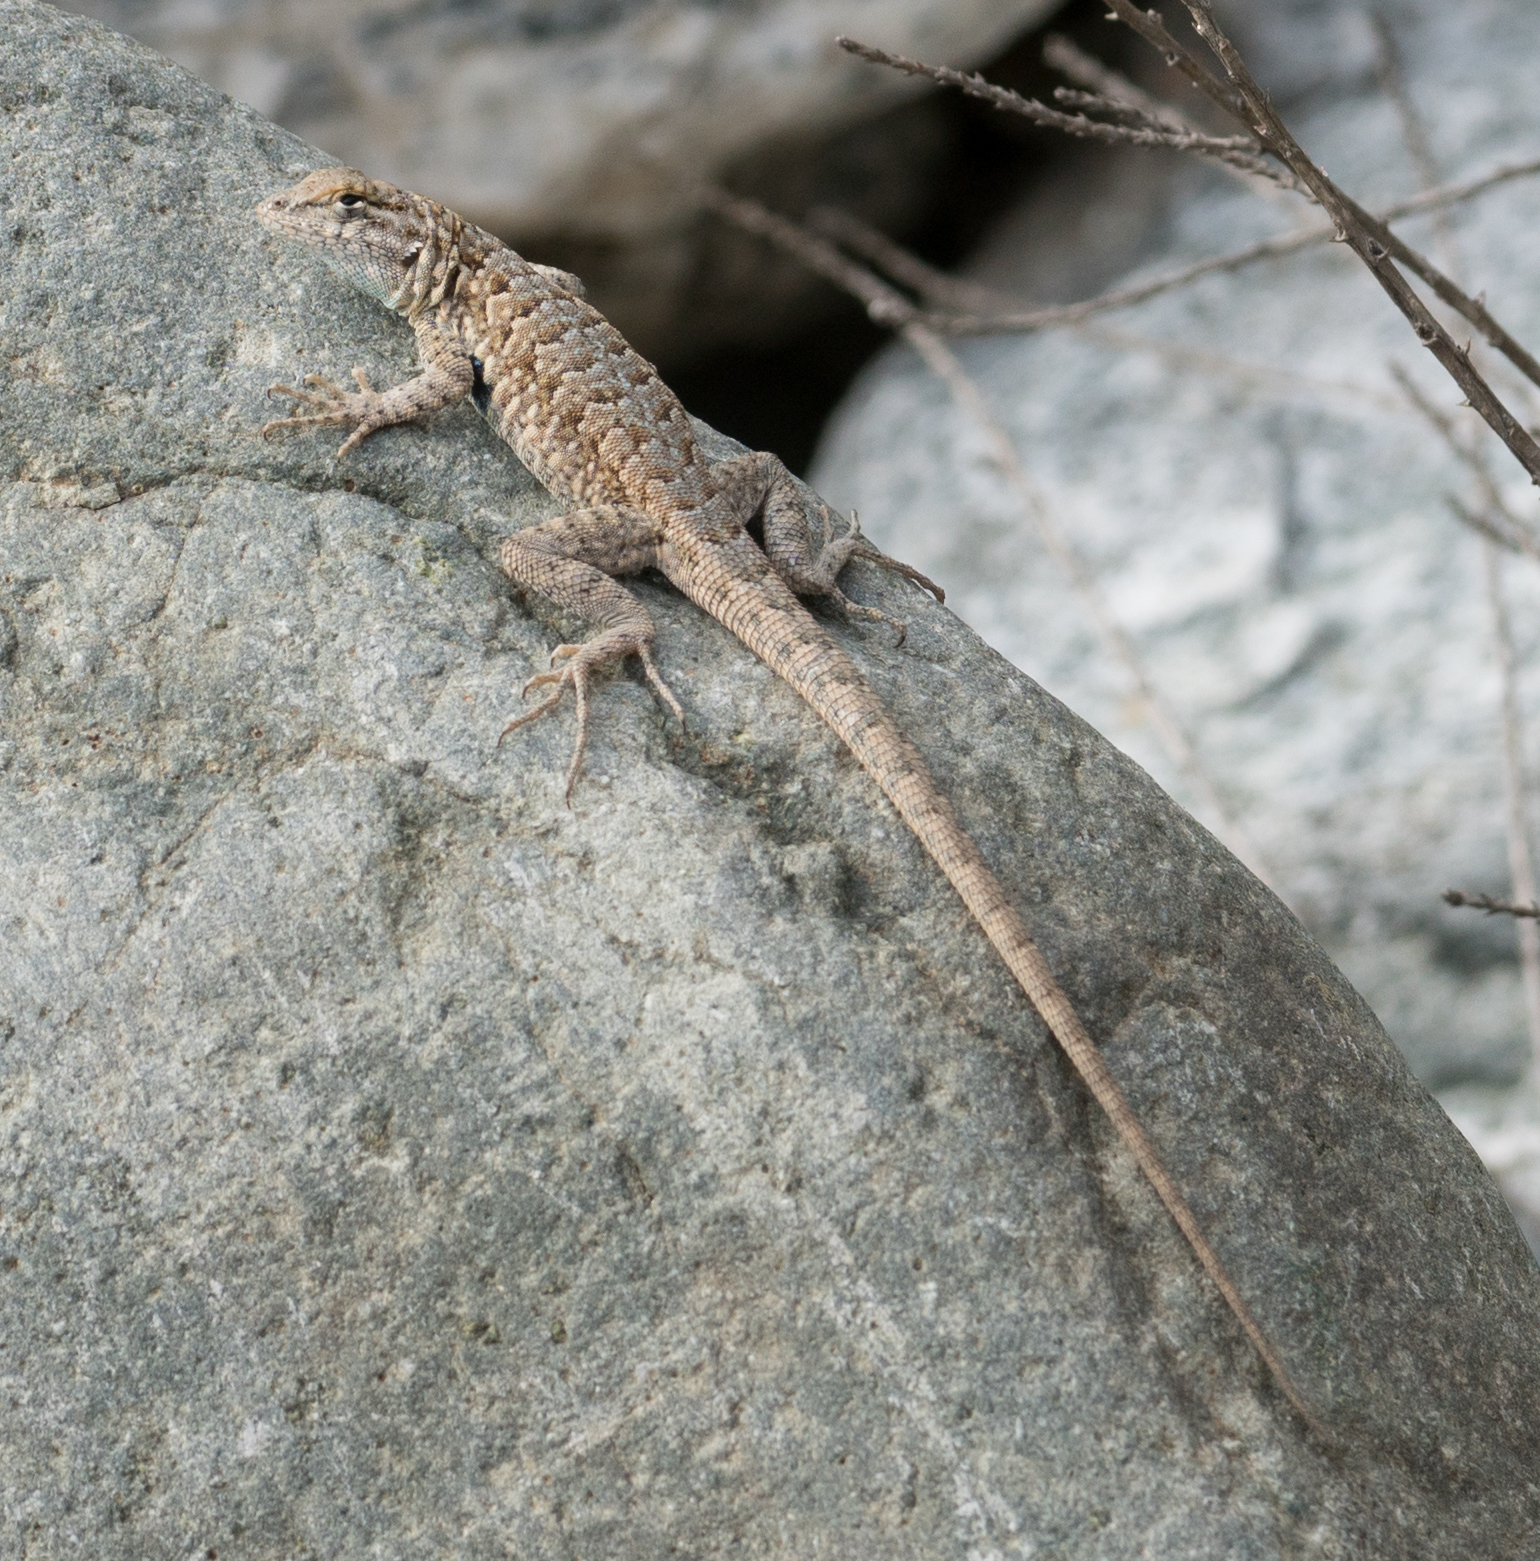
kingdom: Animalia
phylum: Chordata
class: Squamata
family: Phrynosomatidae
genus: Uta
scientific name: Uta stansburiana
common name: Side-blotched lizard
